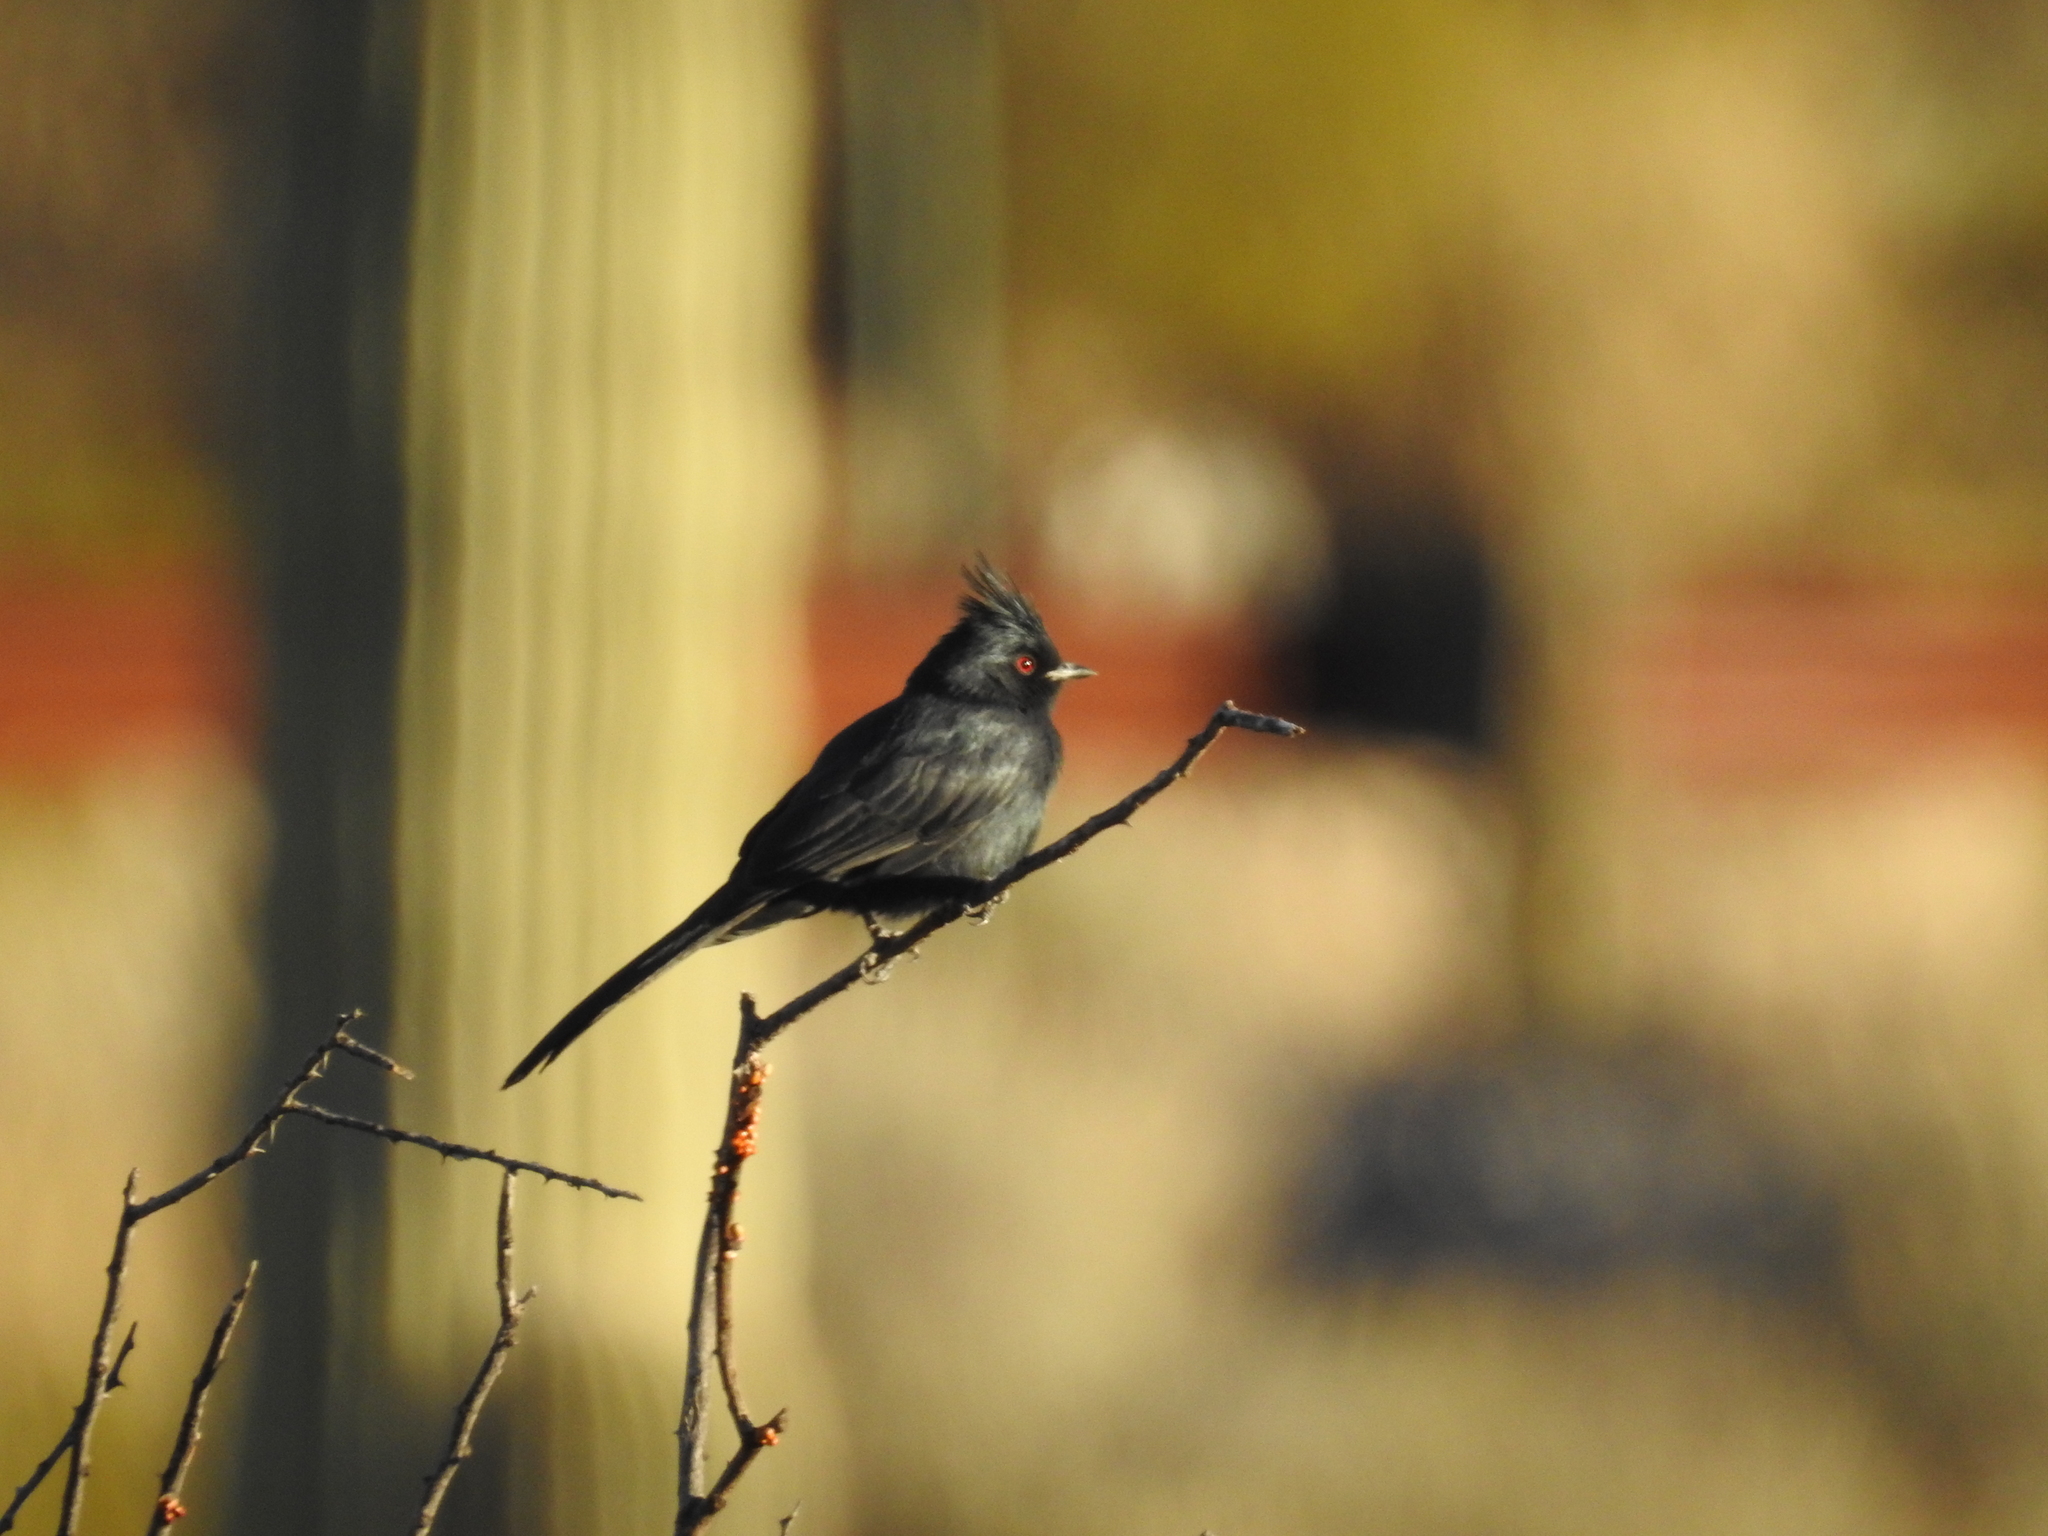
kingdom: Animalia
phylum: Chordata
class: Aves
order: Passeriformes
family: Ptilogonatidae
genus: Phainopepla
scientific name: Phainopepla nitens
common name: Phainopepla
